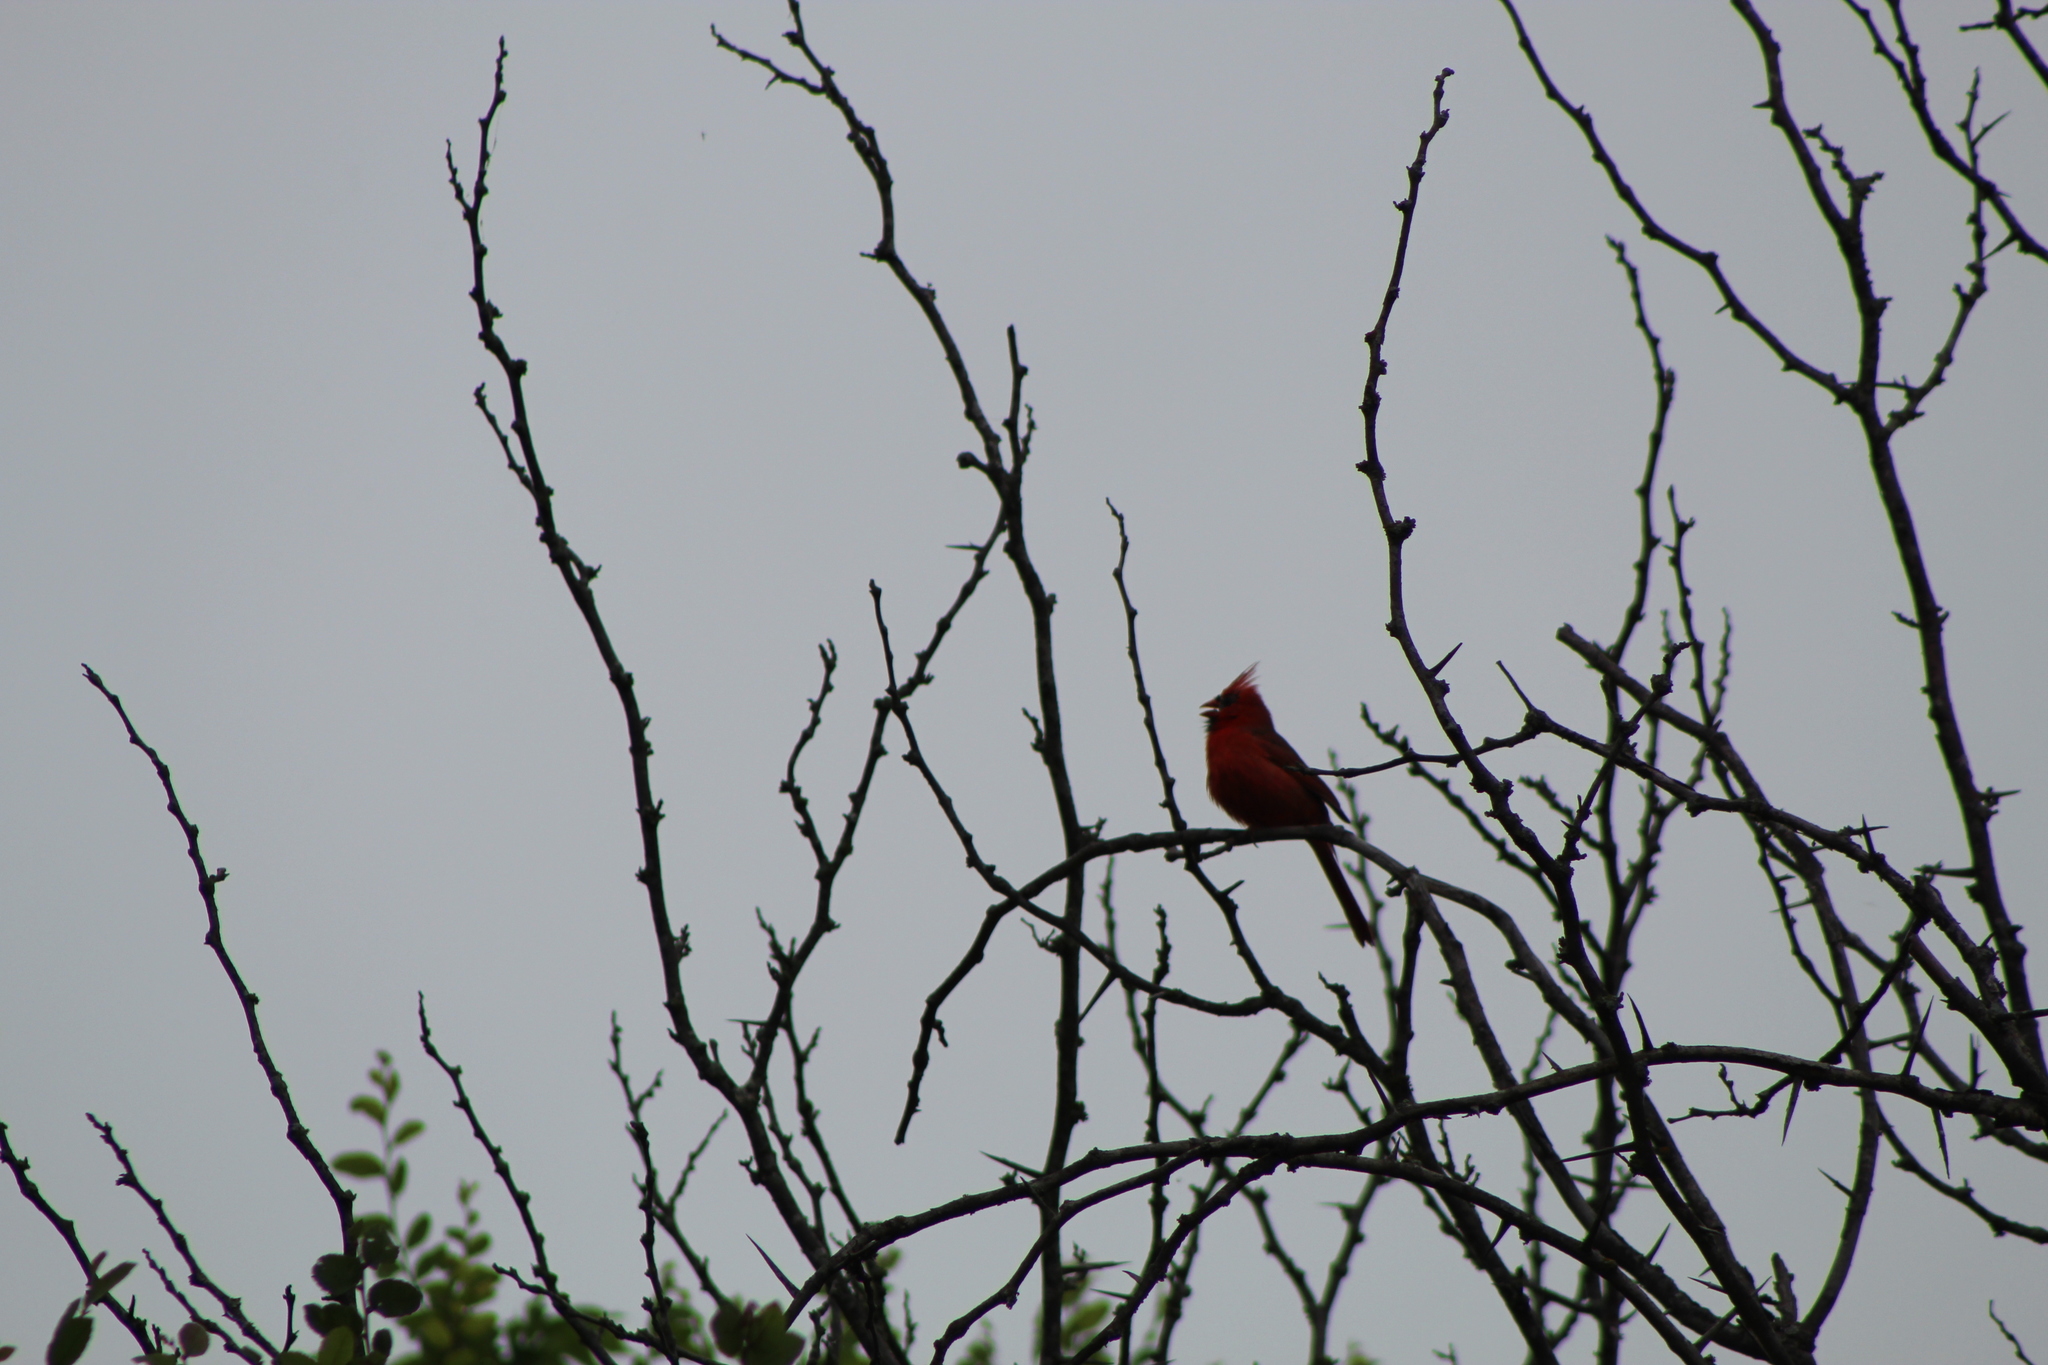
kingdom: Animalia
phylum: Chordata
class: Aves
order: Passeriformes
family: Cardinalidae
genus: Cardinalis
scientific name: Cardinalis cardinalis
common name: Northern cardinal
